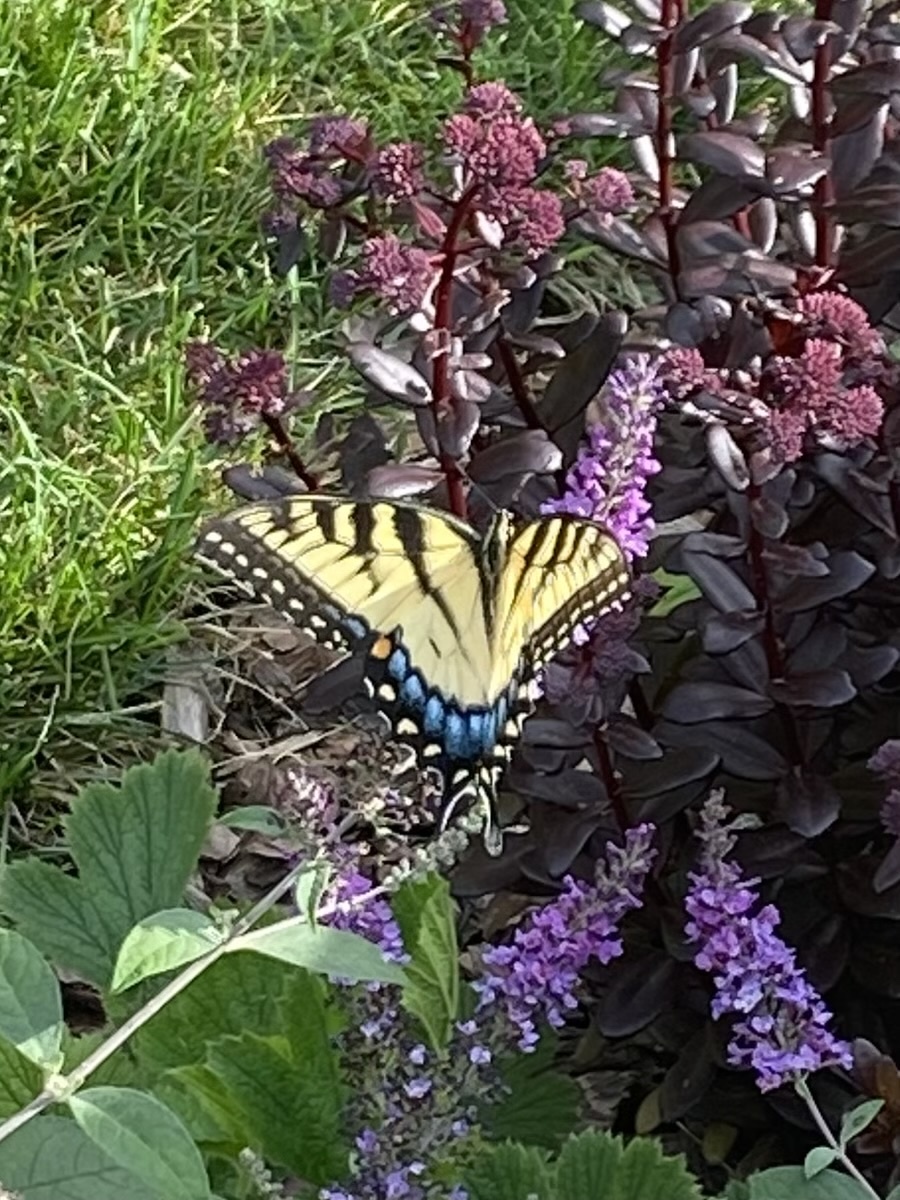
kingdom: Animalia
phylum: Arthropoda
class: Insecta
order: Lepidoptera
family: Papilionidae
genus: Papilio
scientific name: Papilio glaucus
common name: Tiger swallowtail
